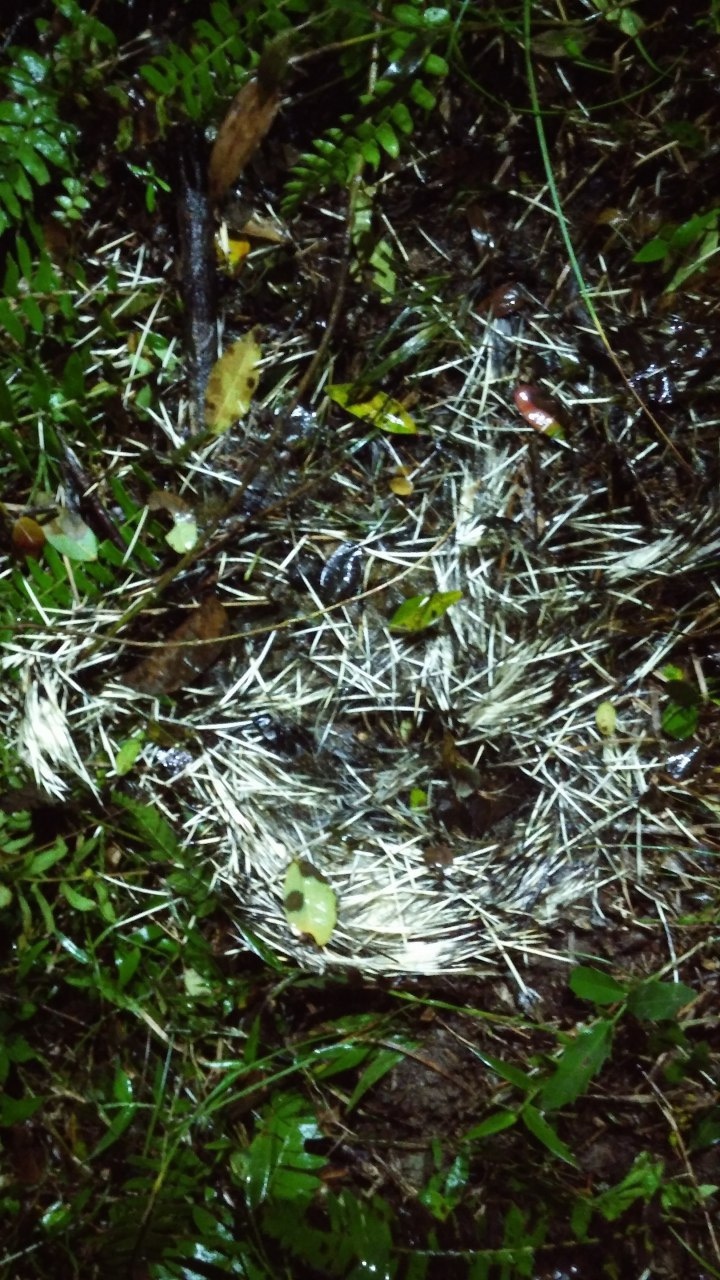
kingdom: Animalia
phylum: Chordata
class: Mammalia
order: Rodentia
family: Erethizontidae
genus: Sphiggurus
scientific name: Sphiggurus spinosus
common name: Paraguaian hairy dwarf porcupine
